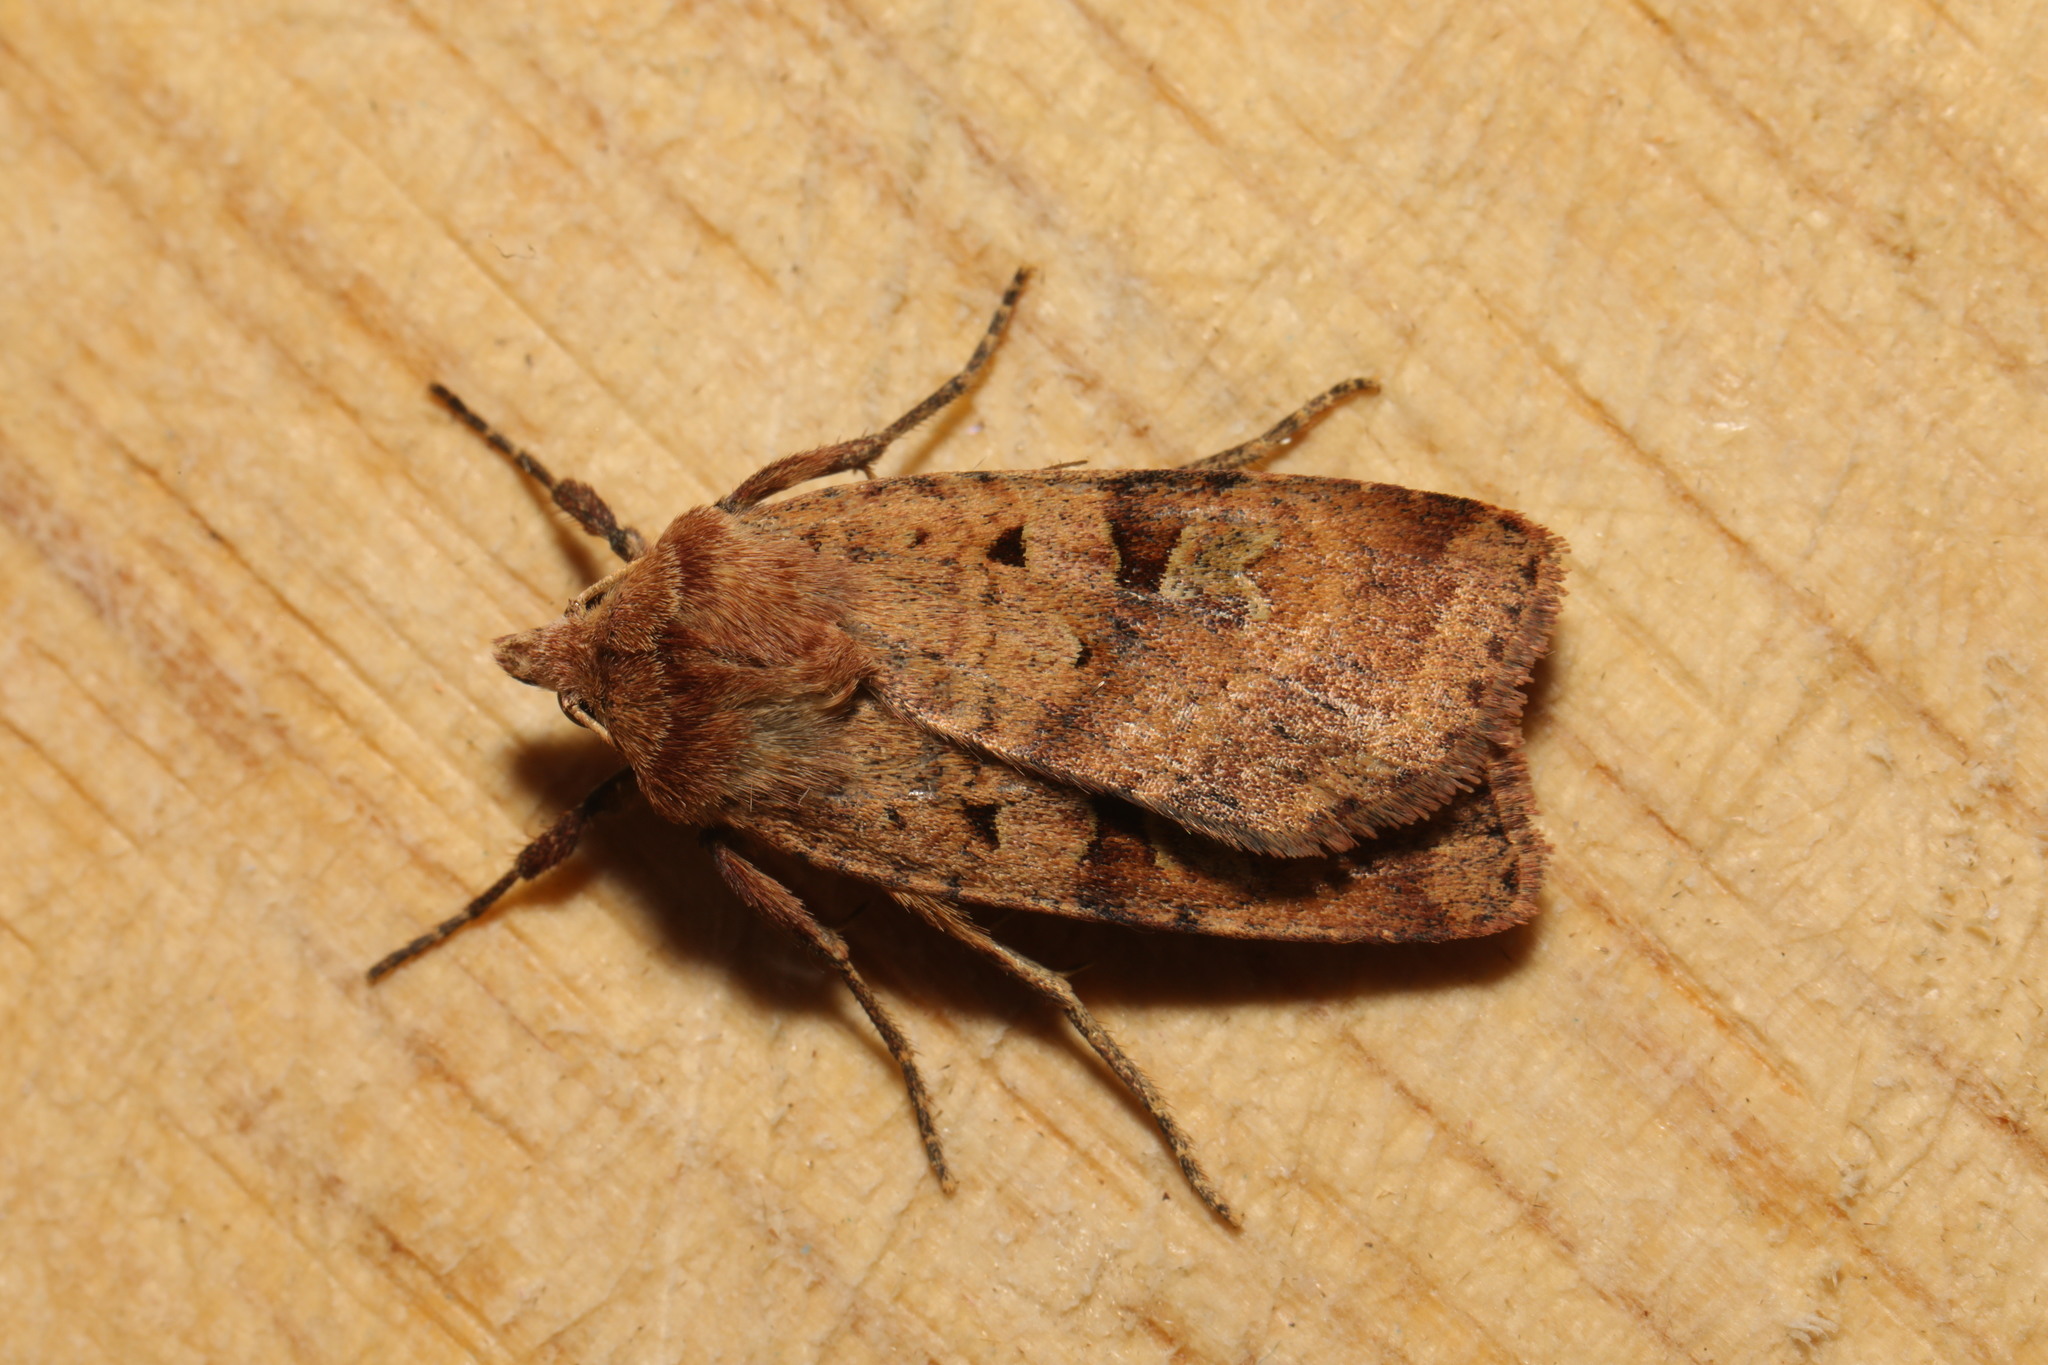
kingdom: Animalia
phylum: Arthropoda
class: Insecta
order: Lepidoptera
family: Noctuidae
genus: Diarsia
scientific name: Diarsia mendica
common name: Ingrailed clay
